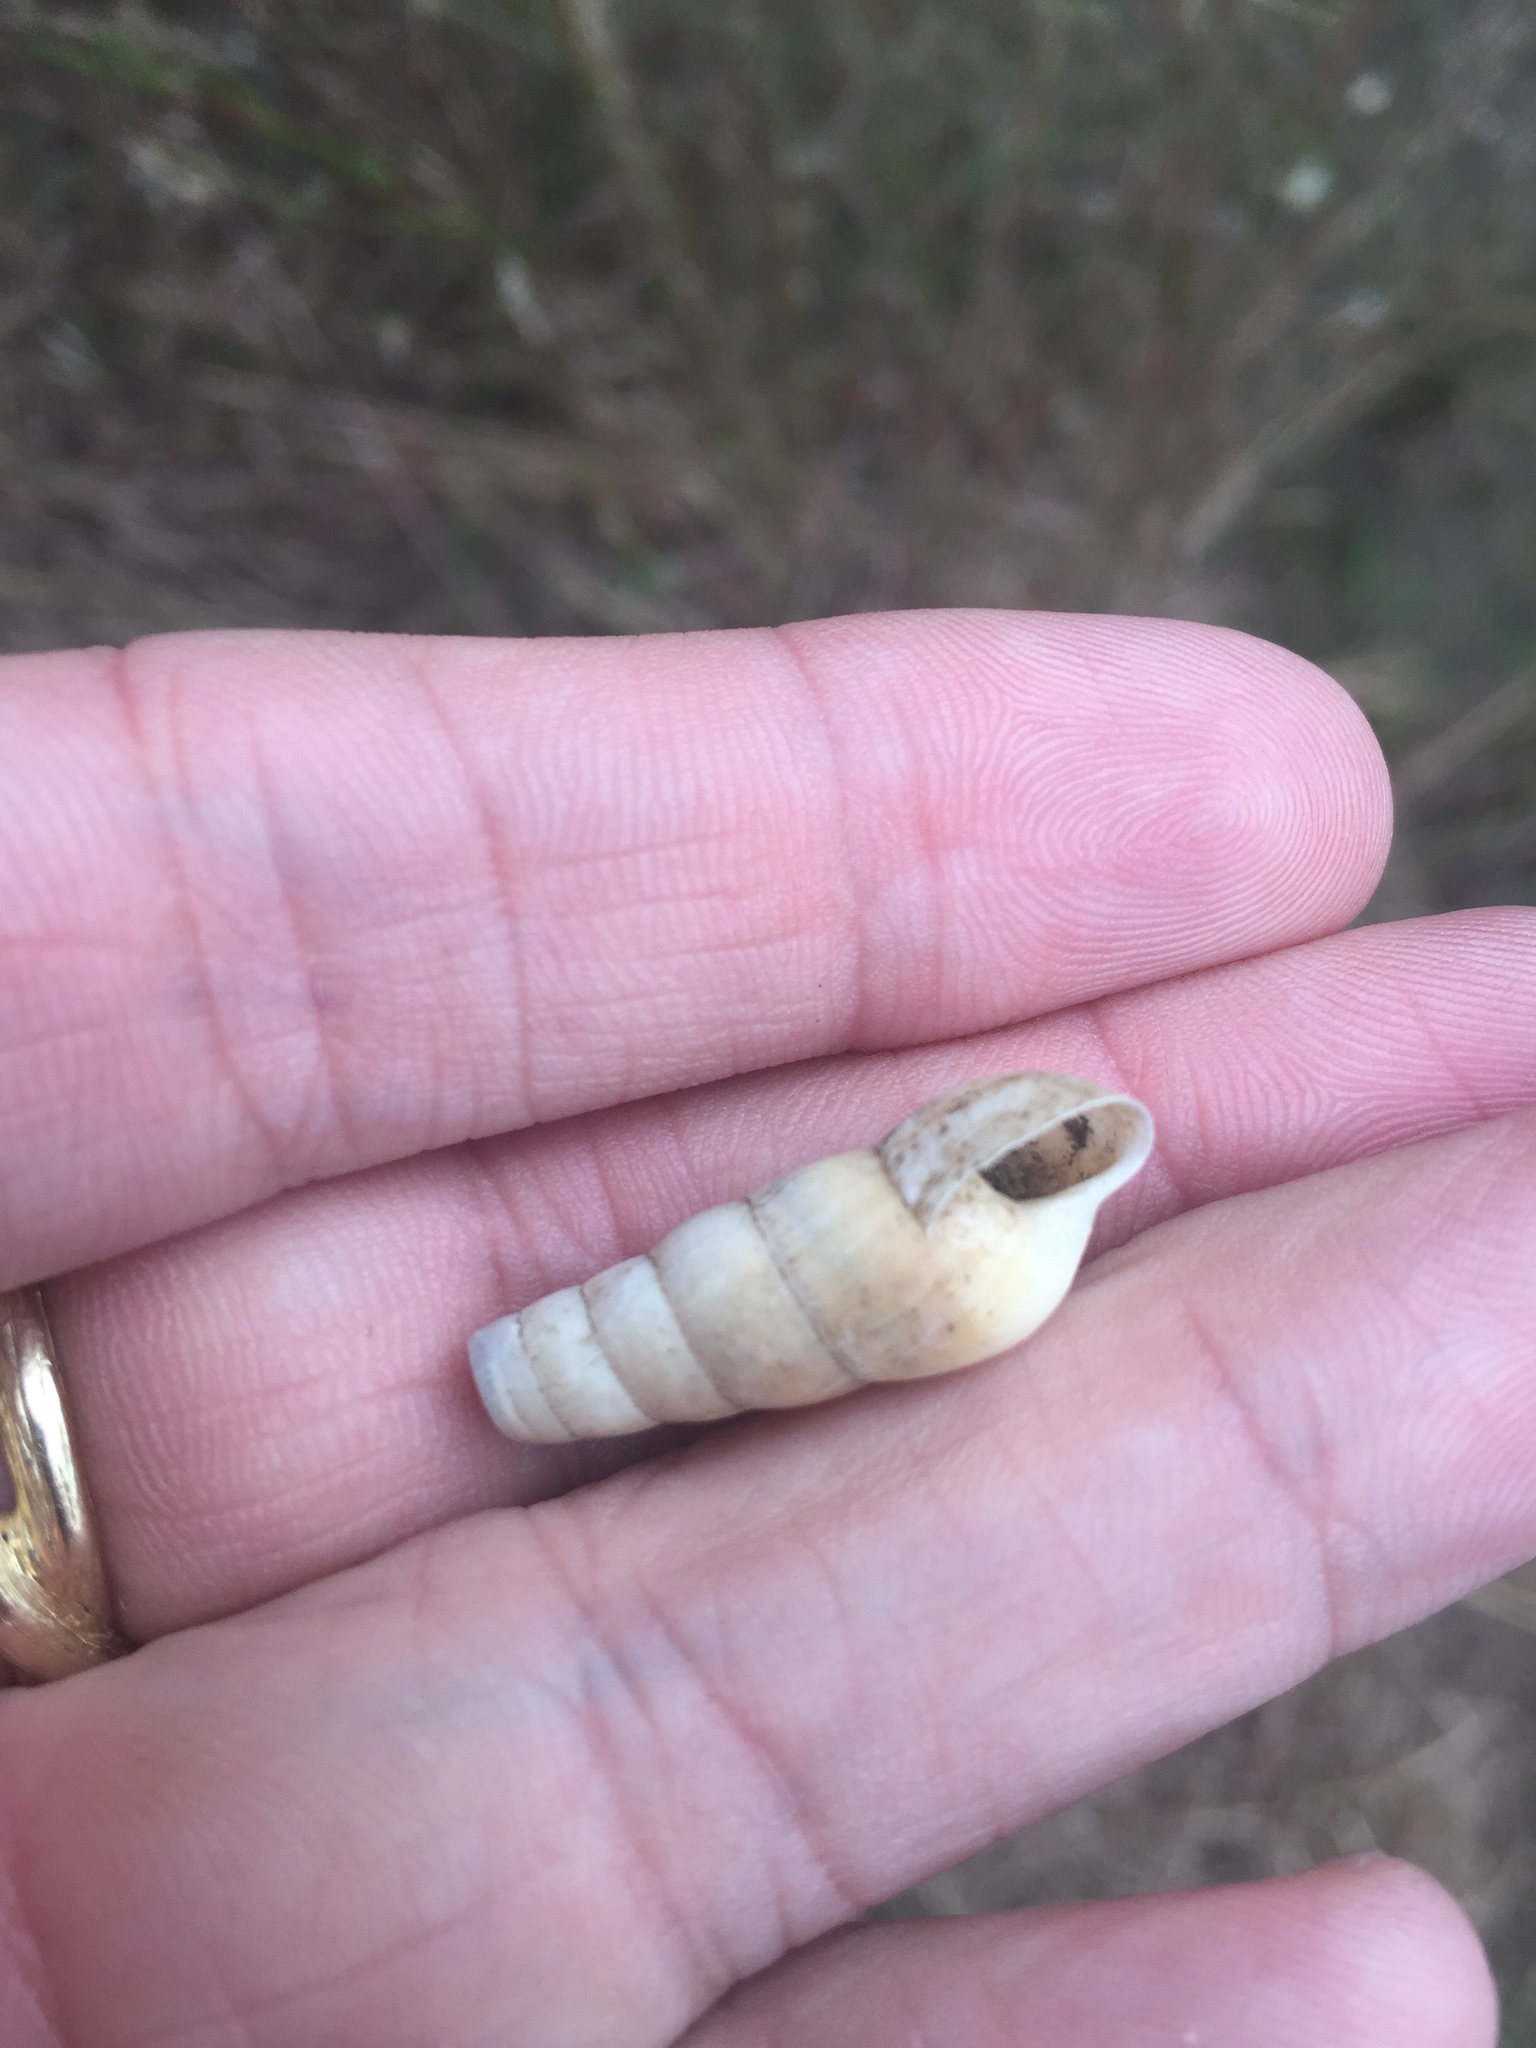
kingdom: Animalia
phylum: Mollusca
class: Gastropoda
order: Stylommatophora
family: Achatinidae
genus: Rumina
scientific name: Rumina decollata
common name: Decollate snail
